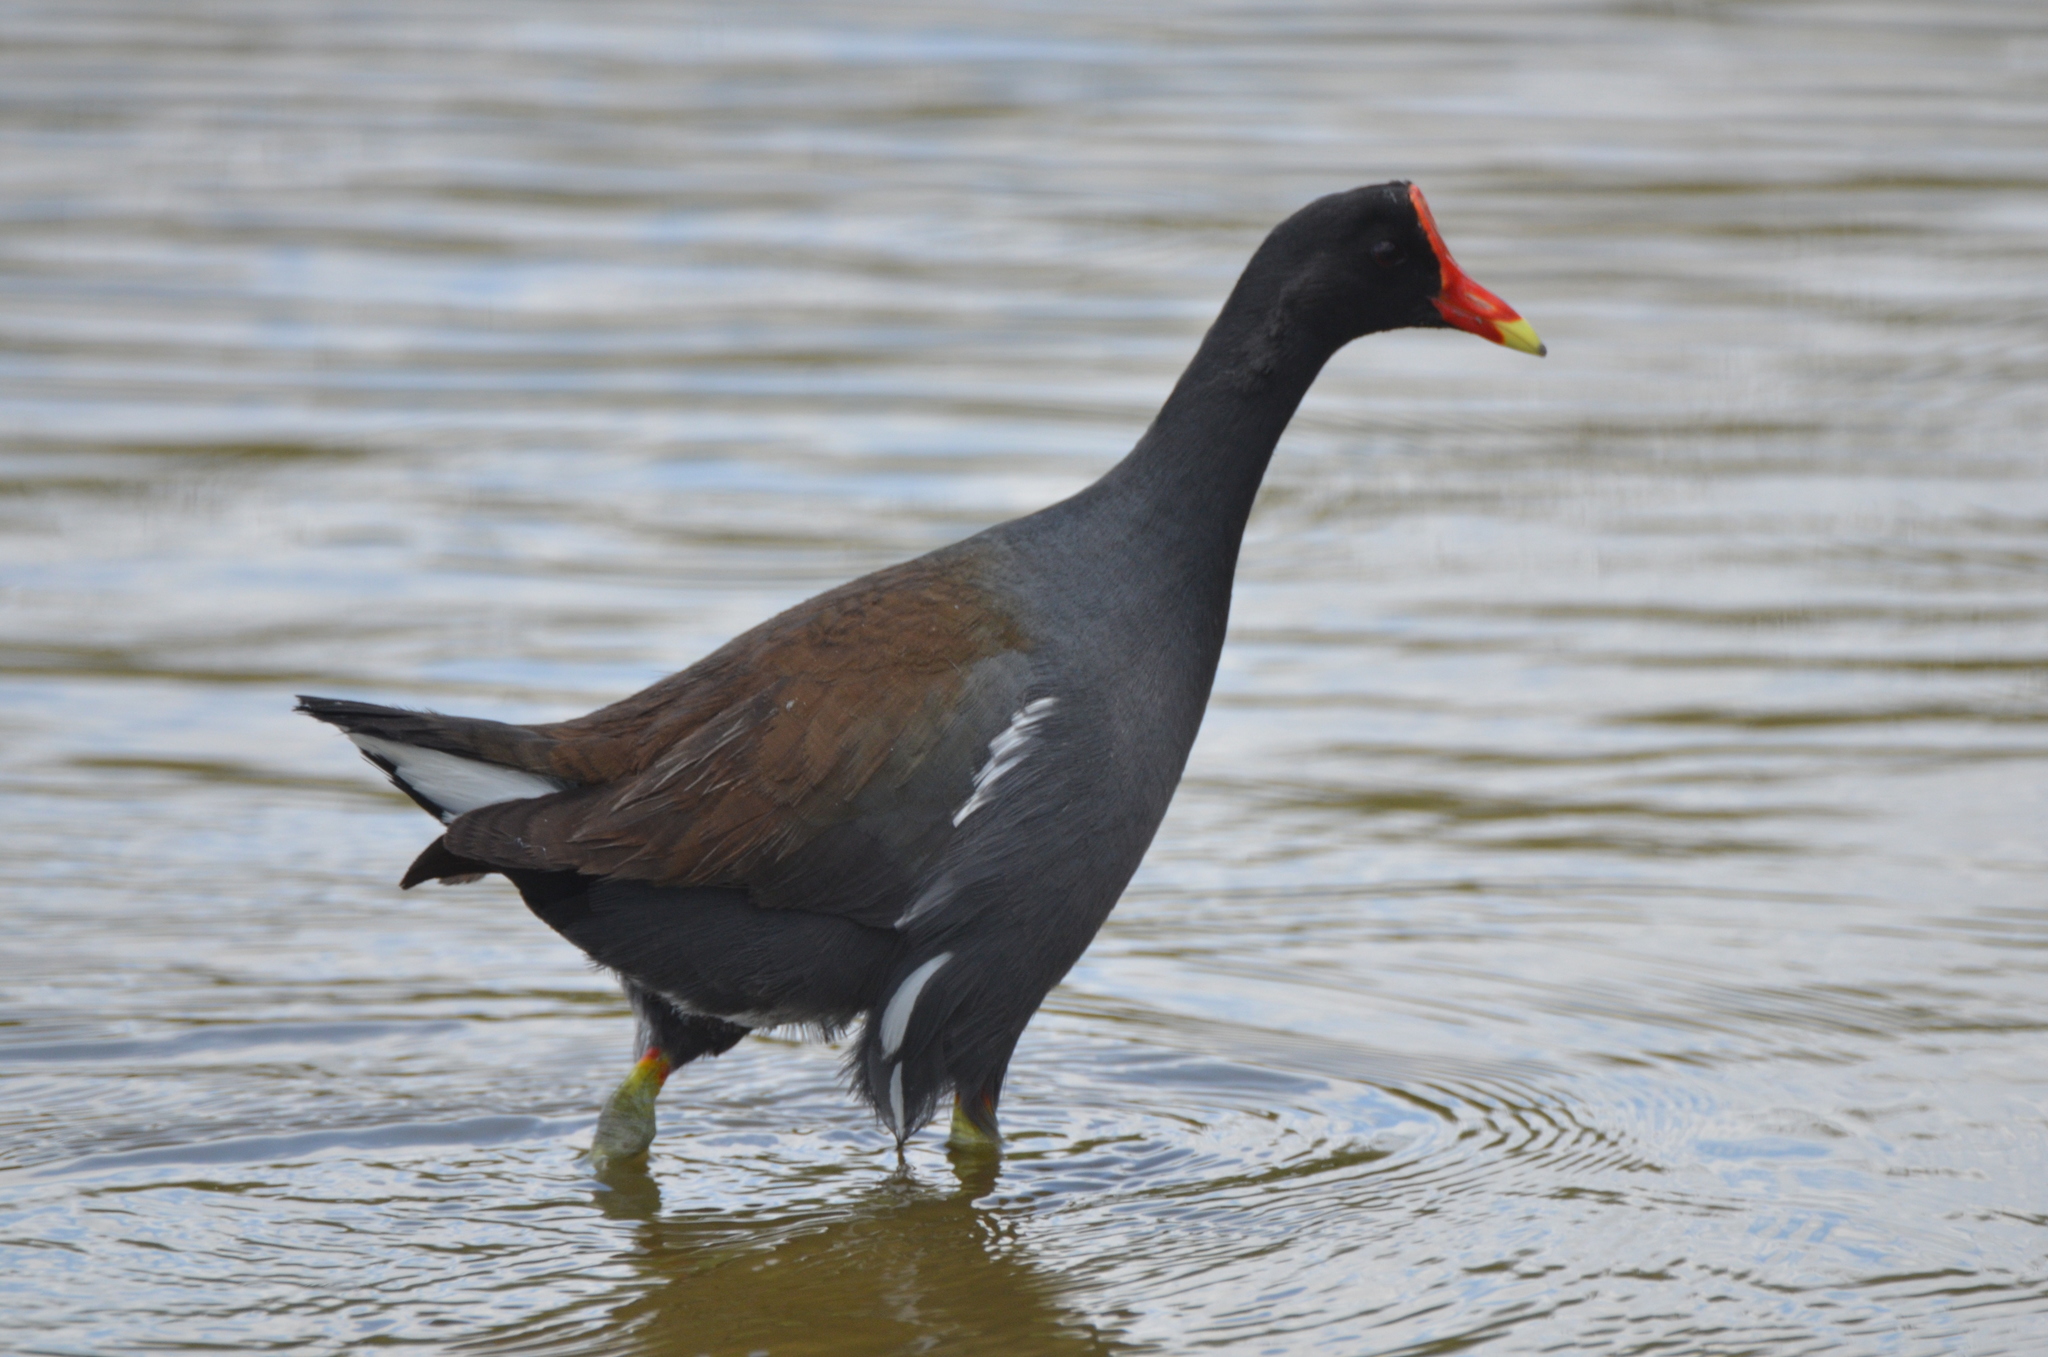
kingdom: Animalia
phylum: Chordata
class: Aves
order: Gruiformes
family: Rallidae
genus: Gallinula
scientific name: Gallinula chloropus
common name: Common moorhen
